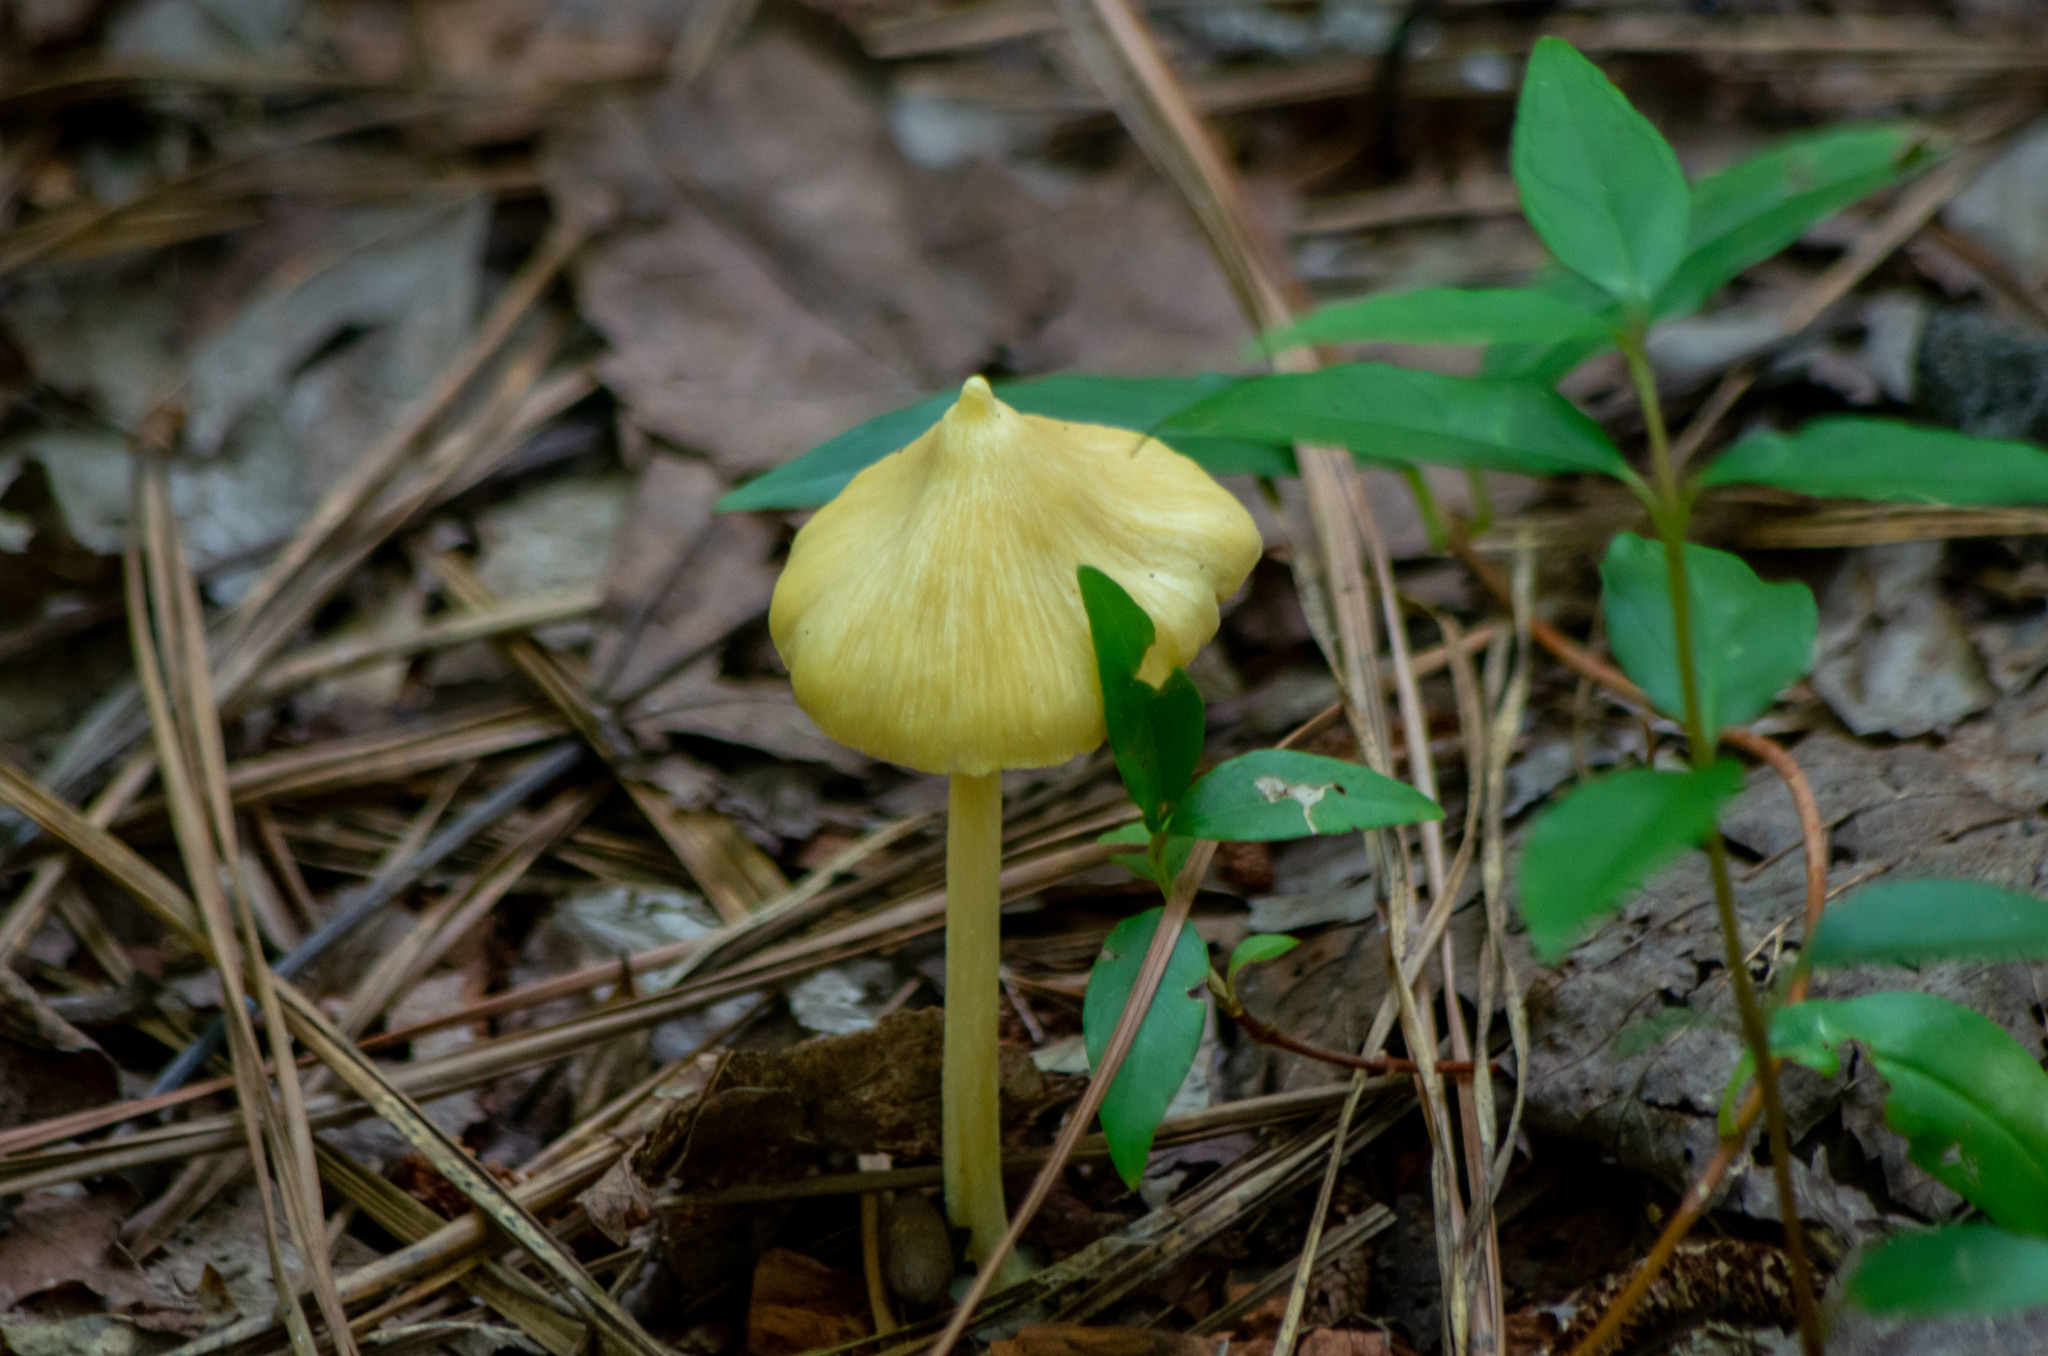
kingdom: Fungi
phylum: Basidiomycota
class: Agaricomycetes
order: Agaricales
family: Entolomataceae
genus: Entoloma
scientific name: Entoloma murrayi
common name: Yellow unicorn entoloma
